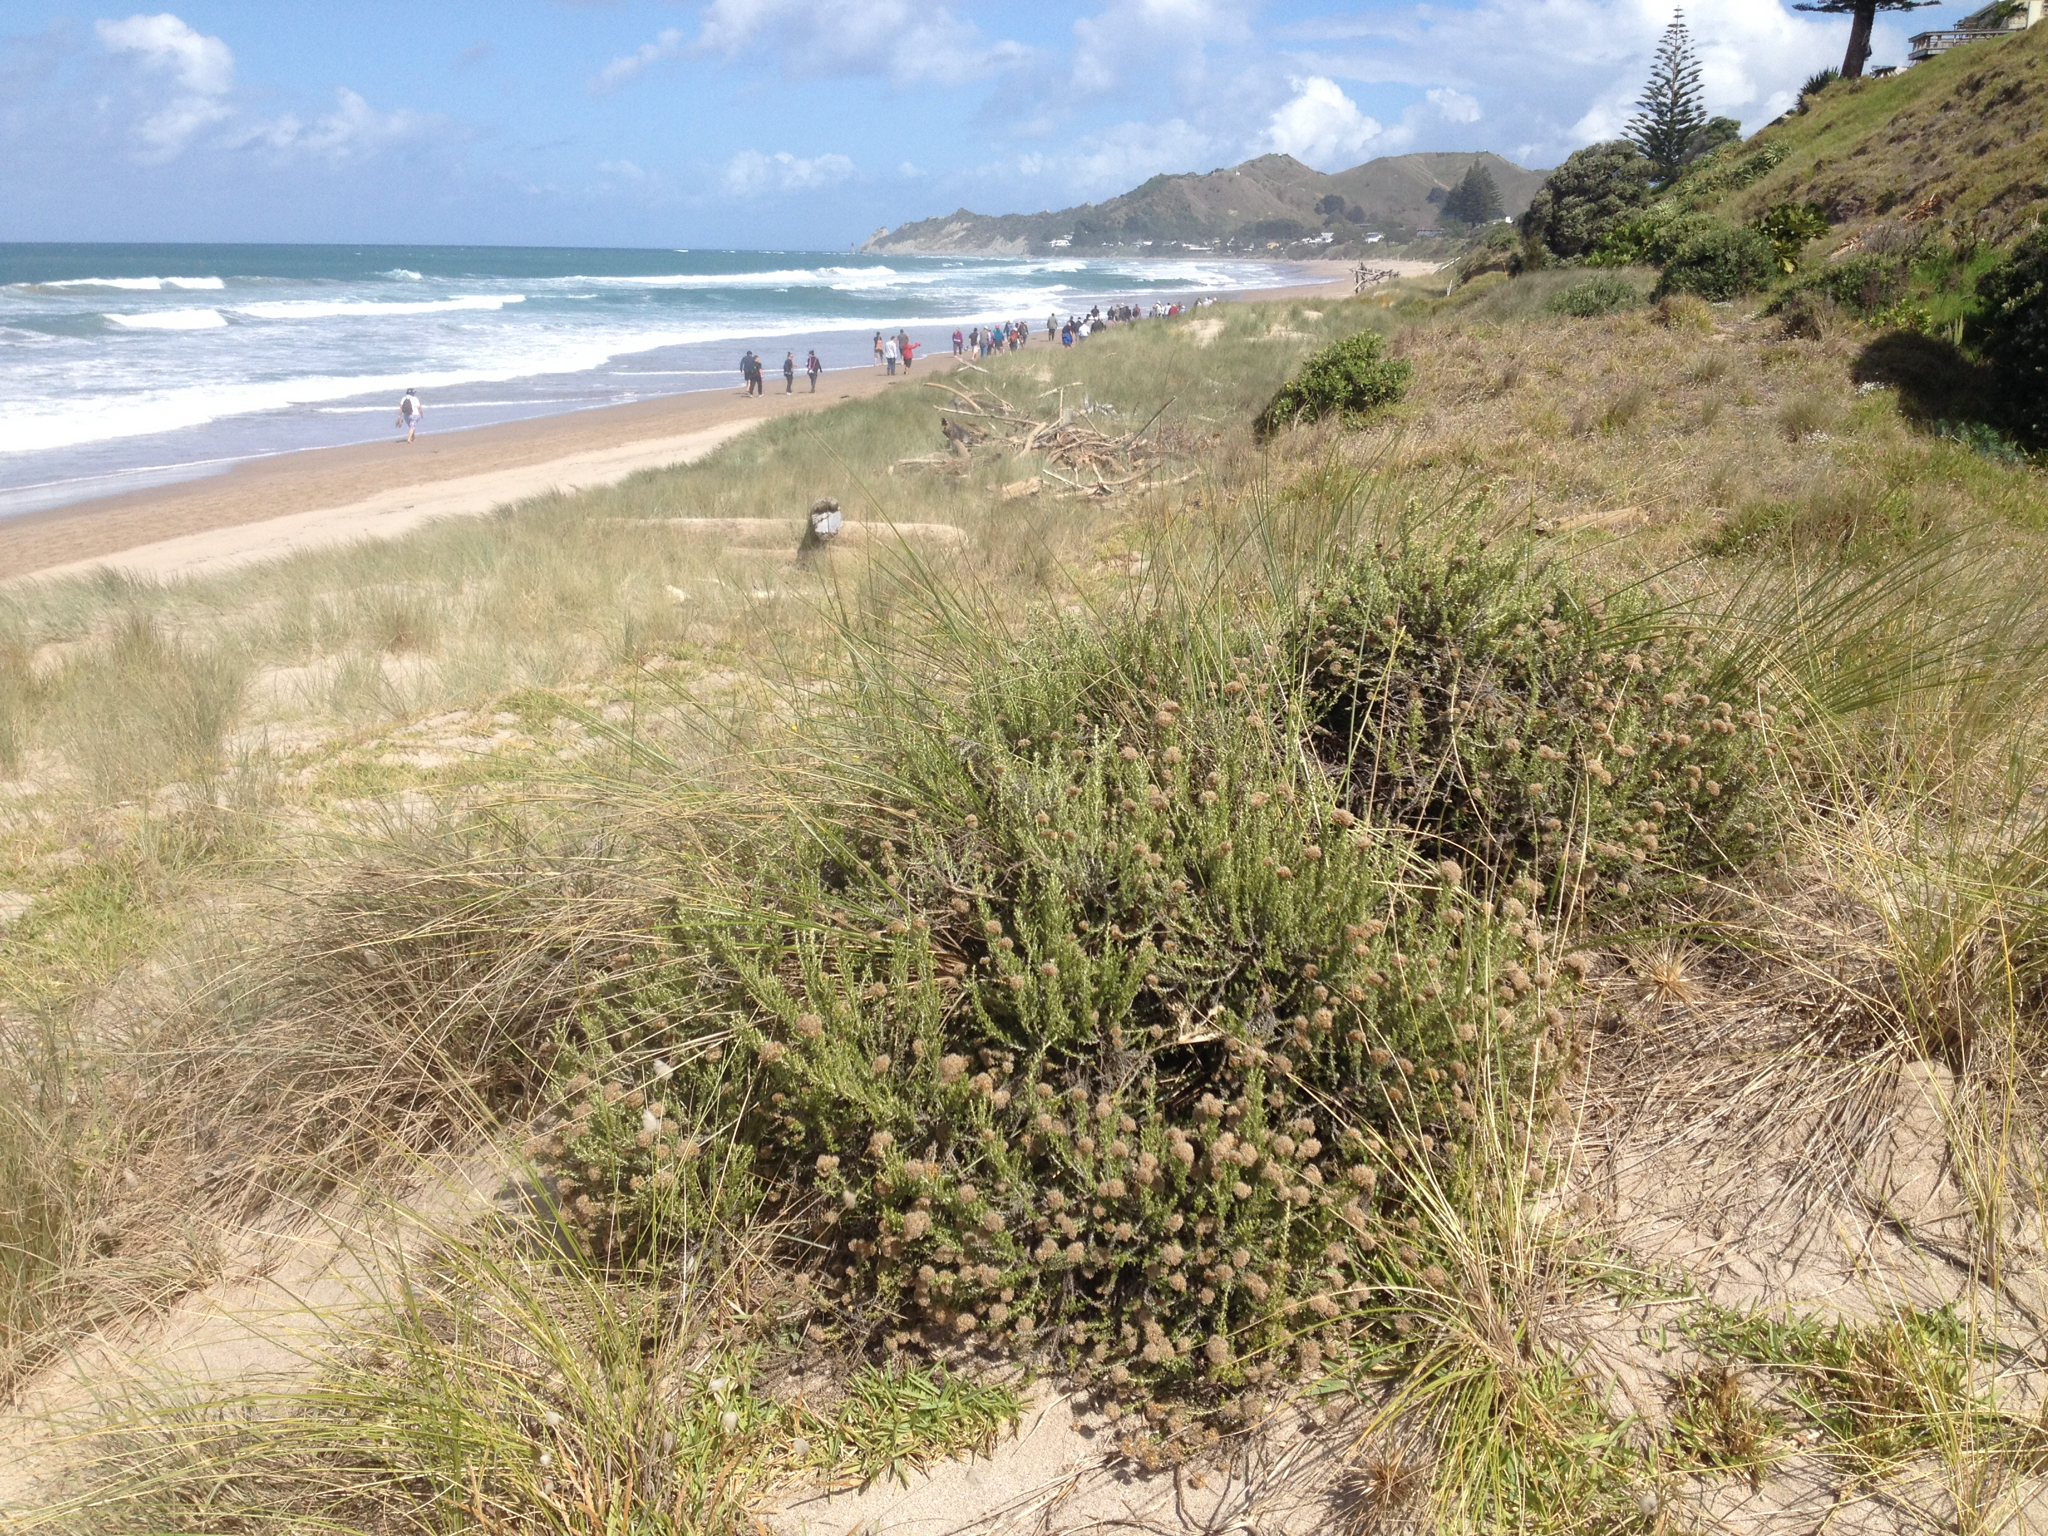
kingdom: Plantae
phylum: Tracheophyta
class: Magnoliopsida
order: Asterales
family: Asteraceae
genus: Ozothamnus
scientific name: Ozothamnus leptophyllus
